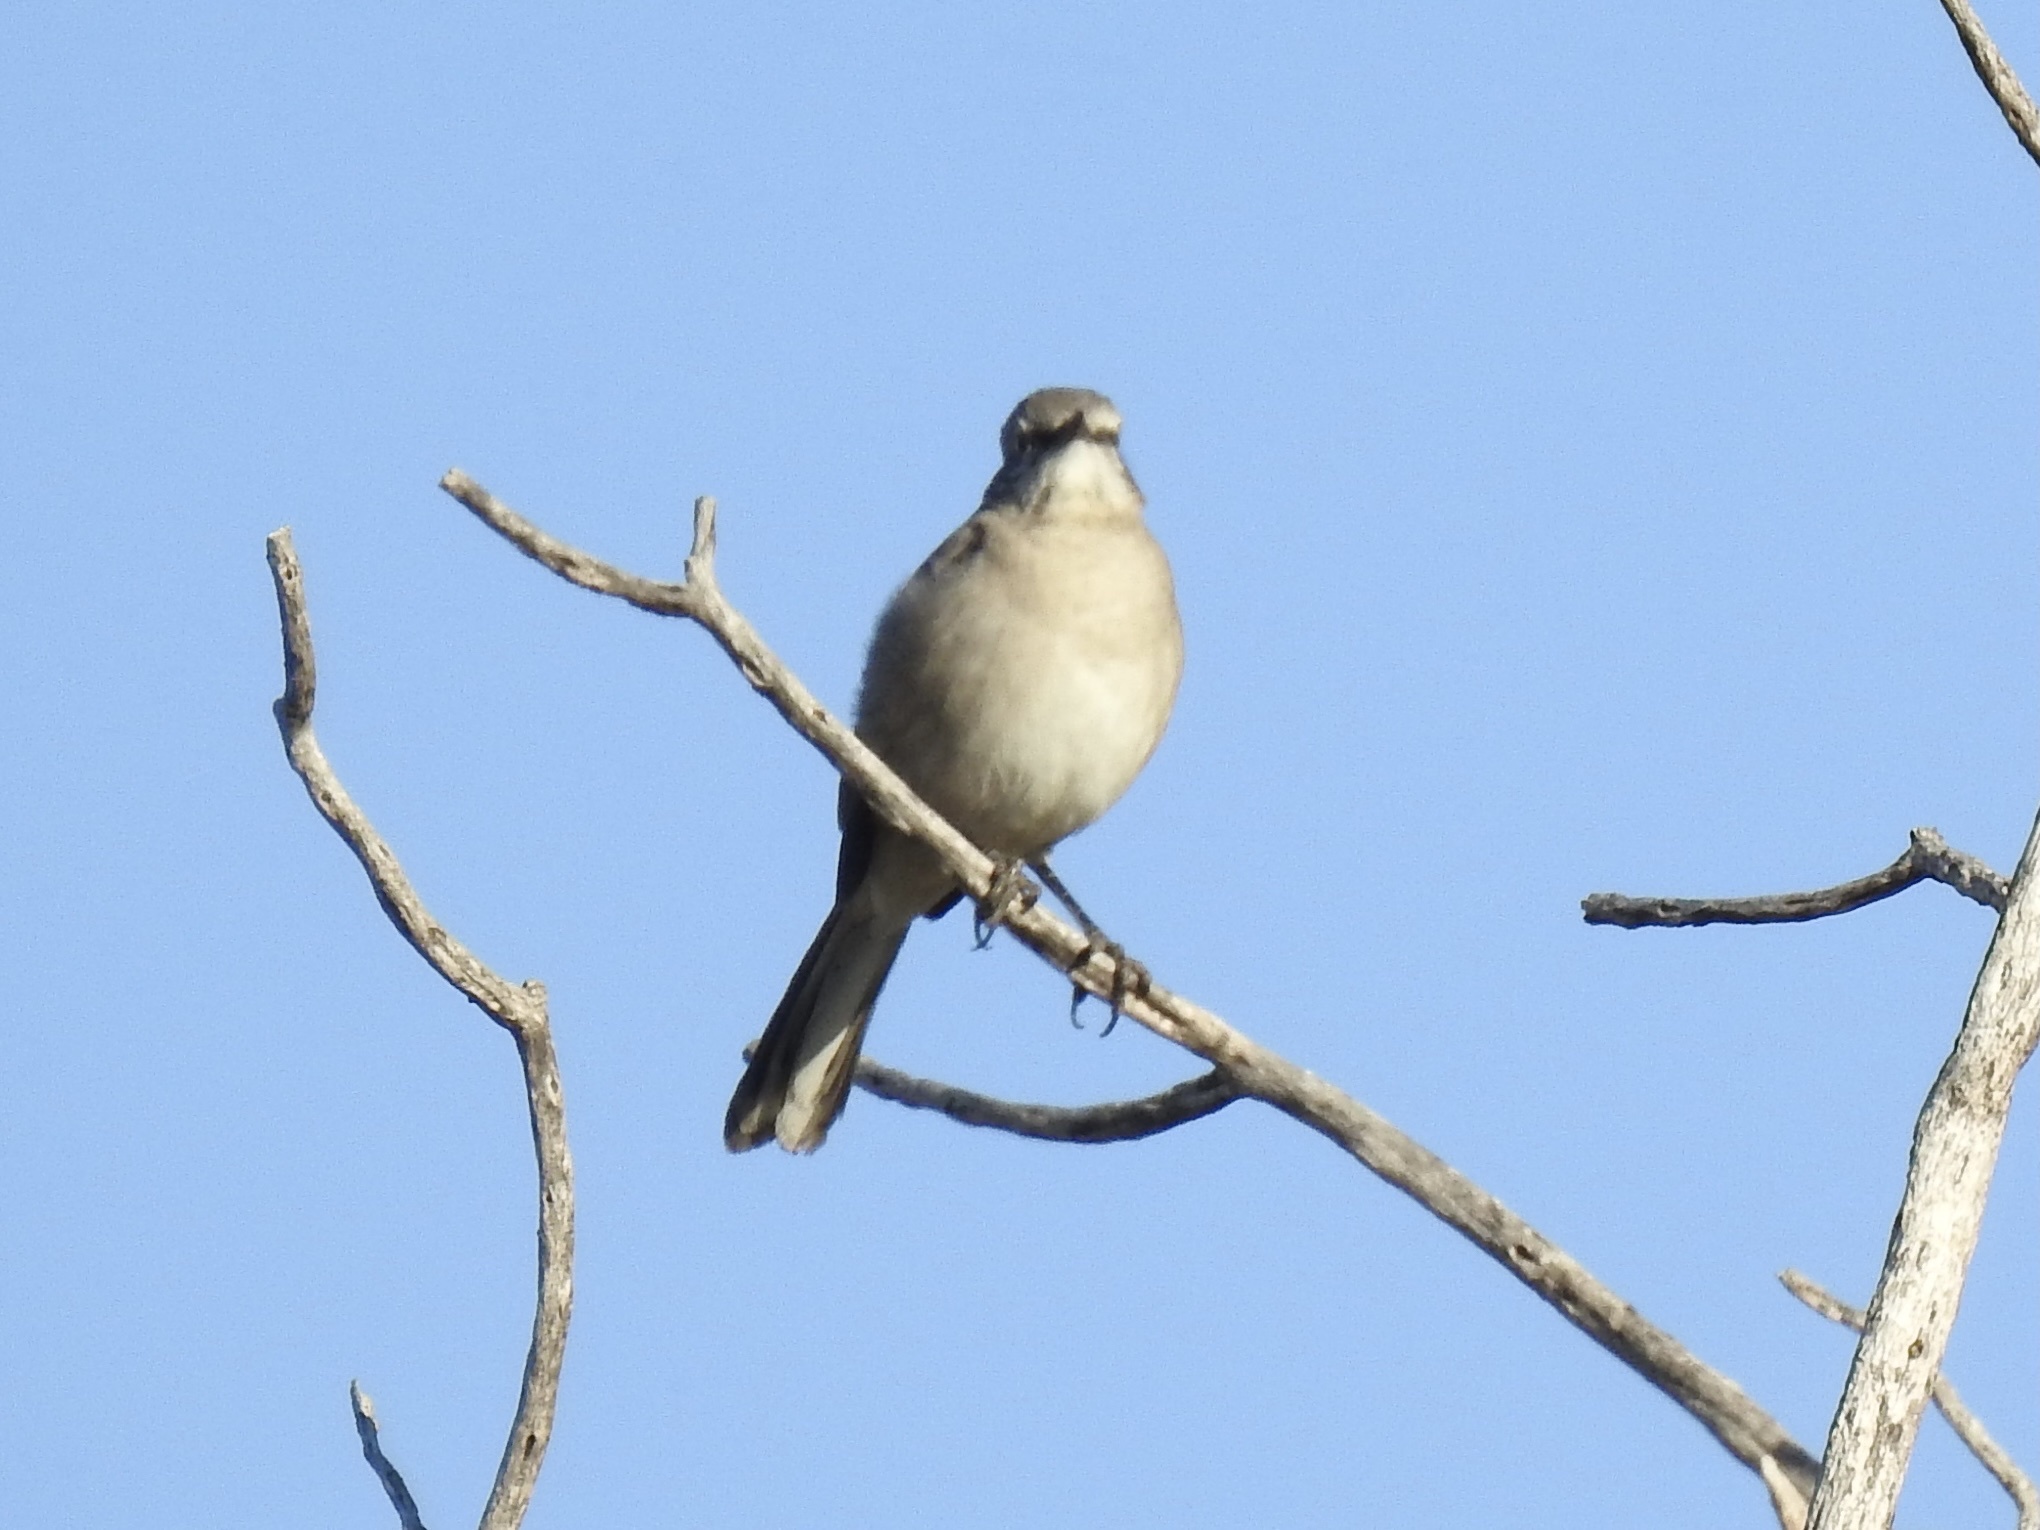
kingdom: Animalia
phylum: Chordata
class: Aves
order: Passeriformes
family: Mimidae
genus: Mimus
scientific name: Mimus polyglottos
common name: Northern mockingbird
